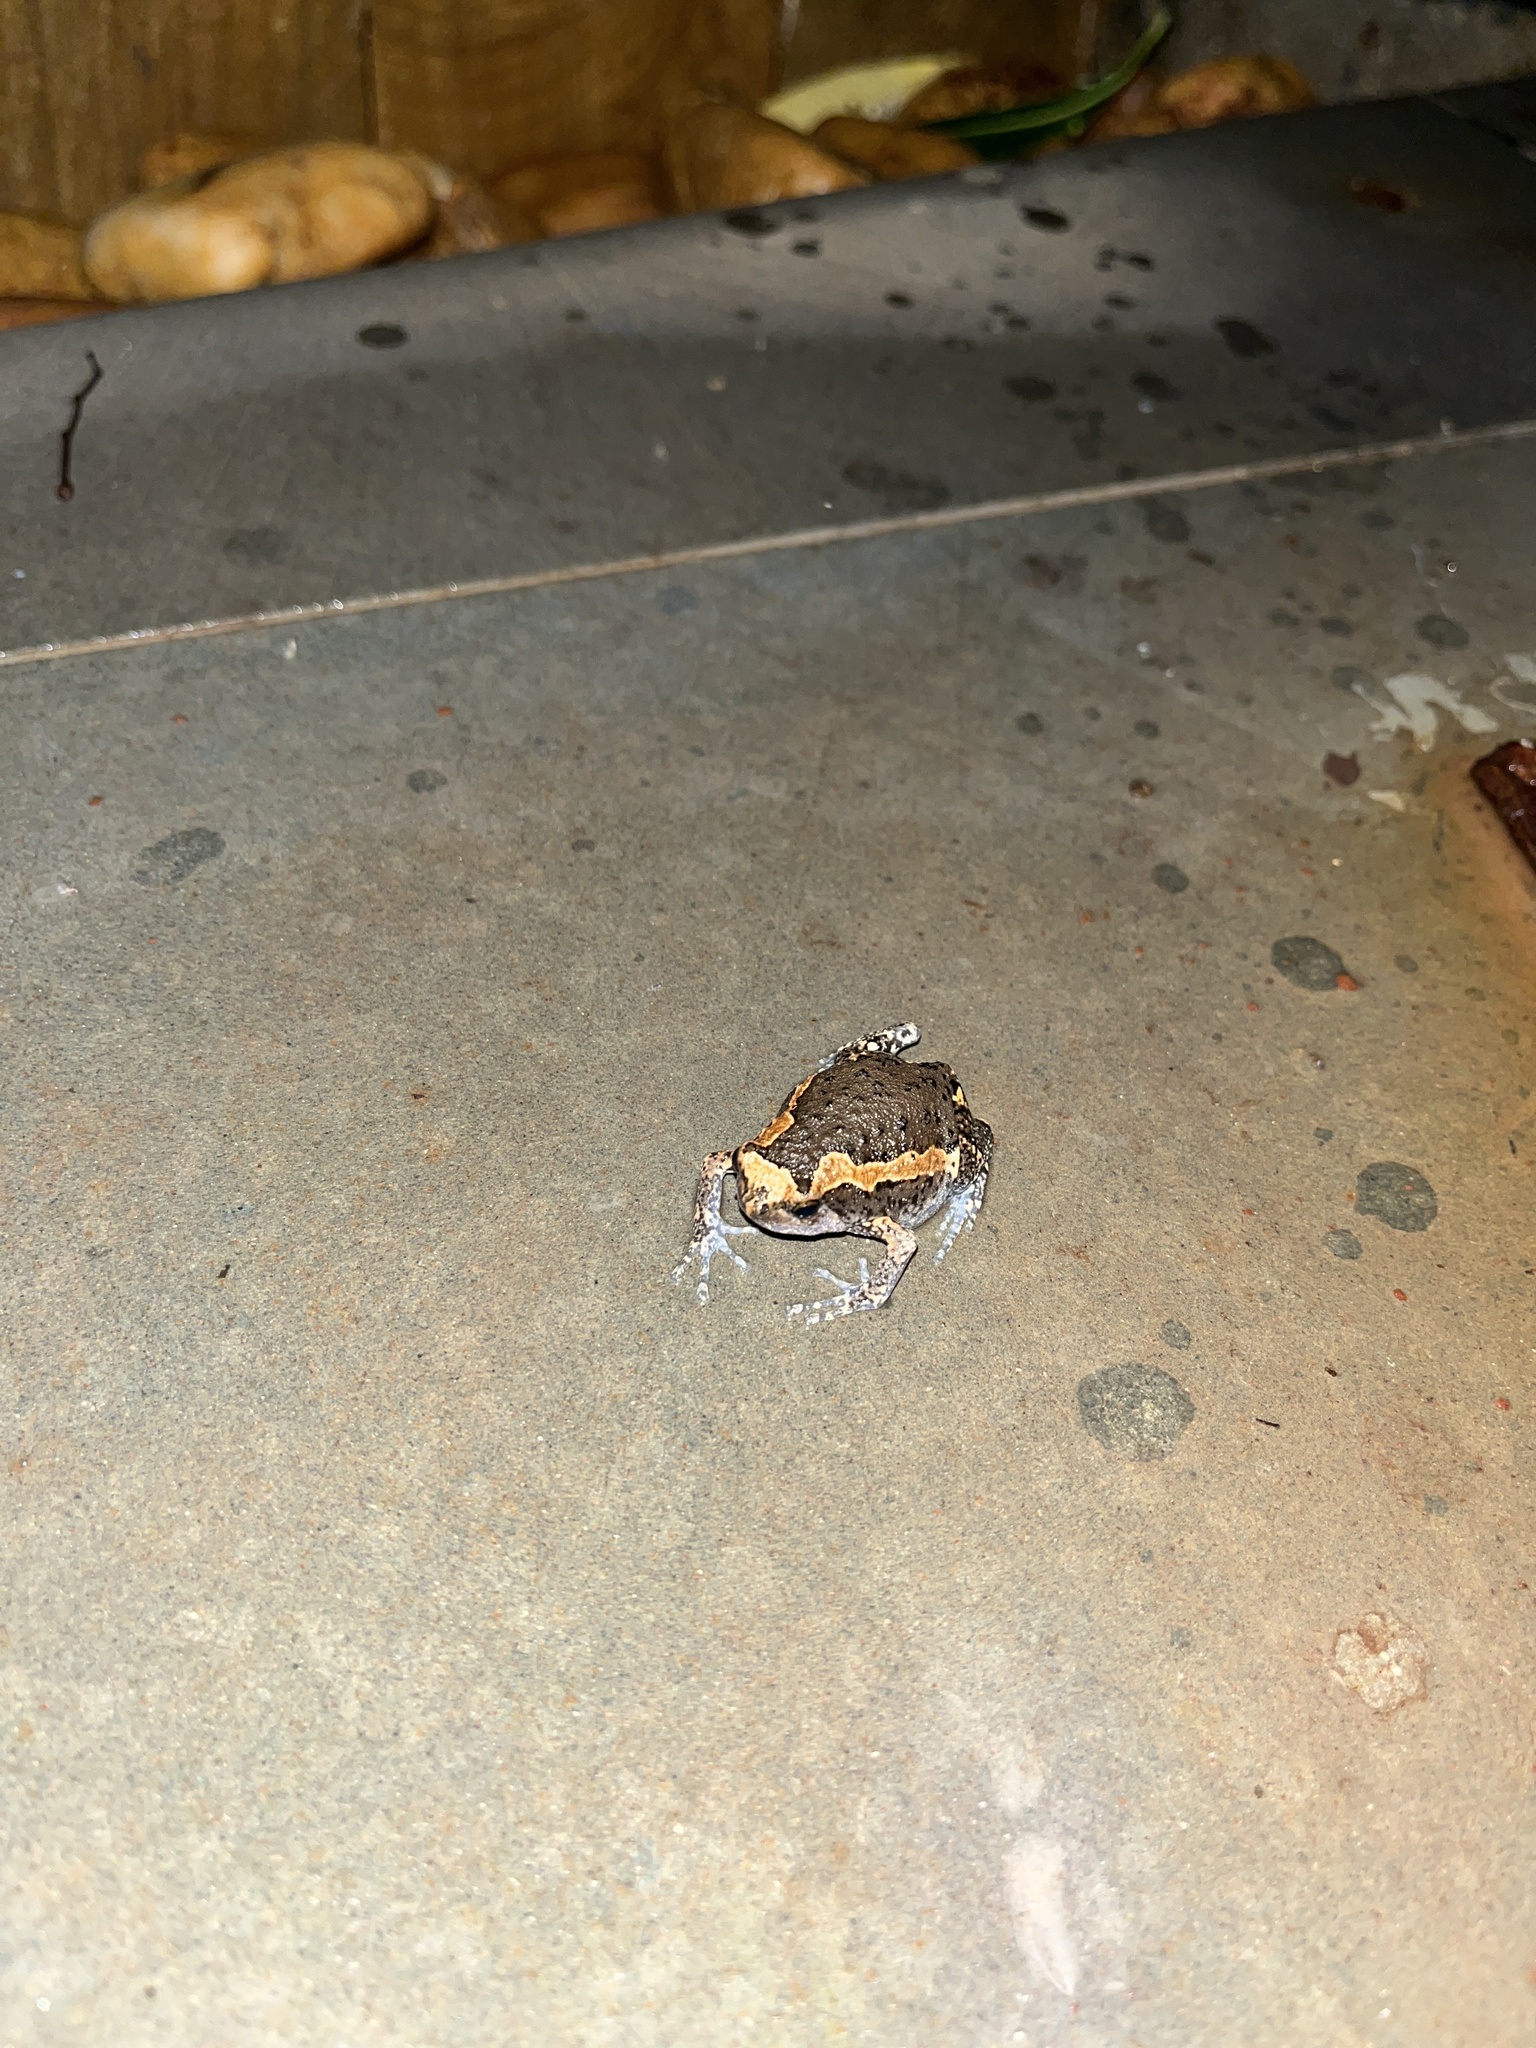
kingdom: Animalia
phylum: Chordata
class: Amphibia
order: Anura
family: Microhylidae
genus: Kaloula
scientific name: Kaloula pulchra
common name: Common,banded bullfrog
